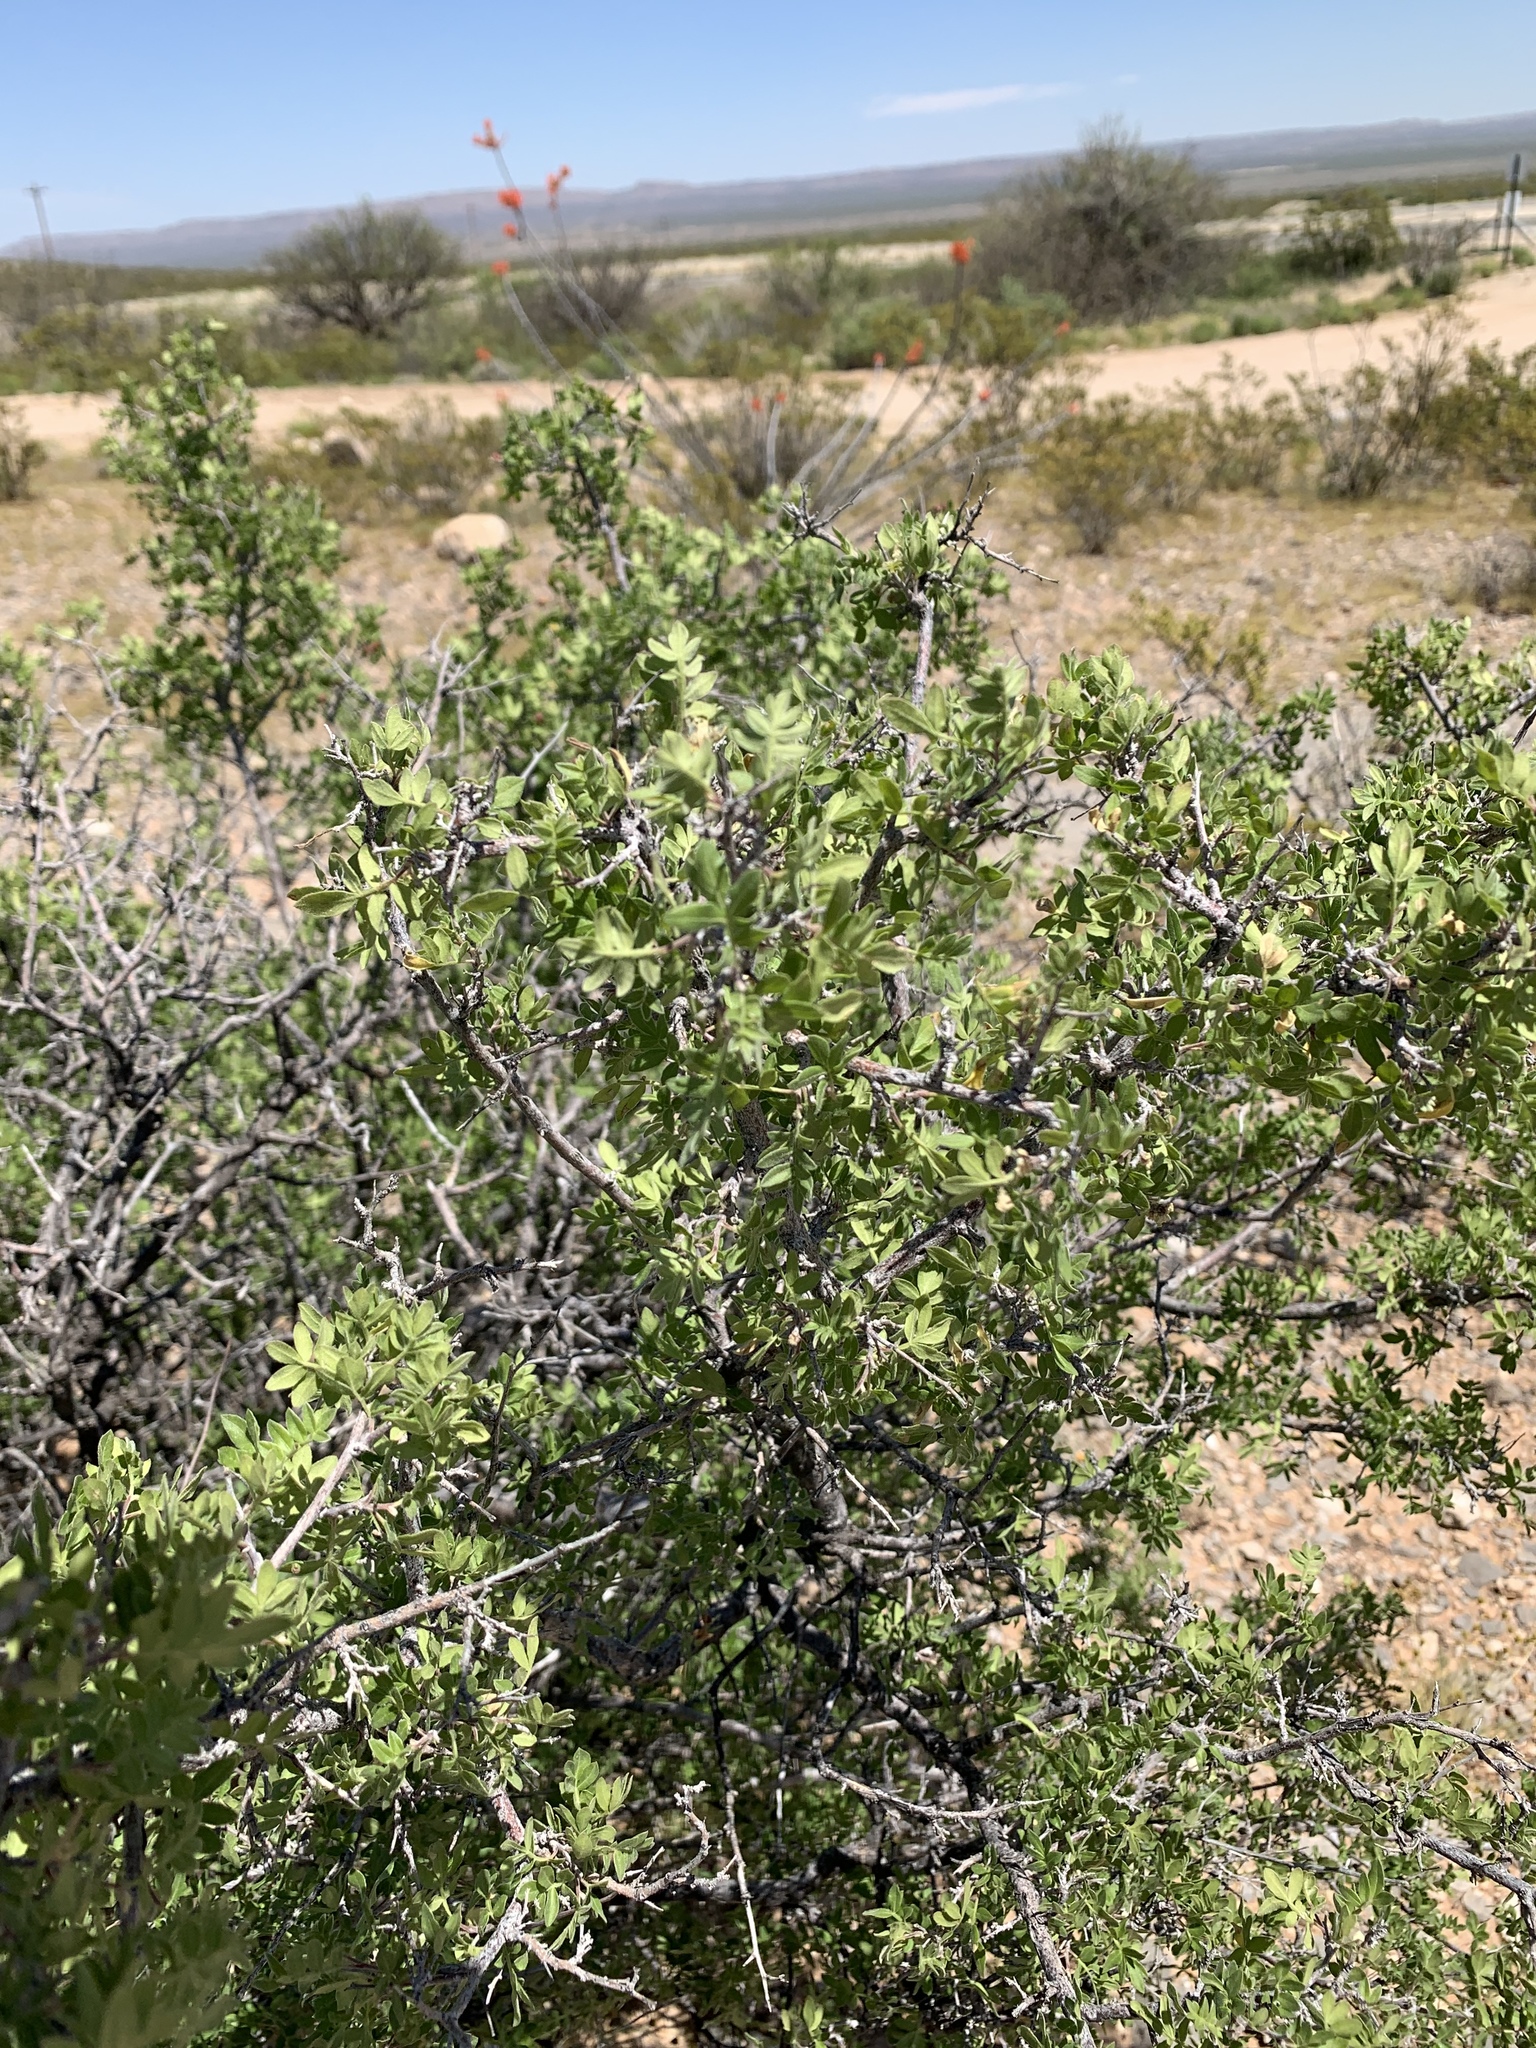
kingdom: Plantae
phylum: Tracheophyta
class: Magnoliopsida
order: Sapindales
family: Anacardiaceae
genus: Rhus
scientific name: Rhus microphylla
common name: Desert sumac
